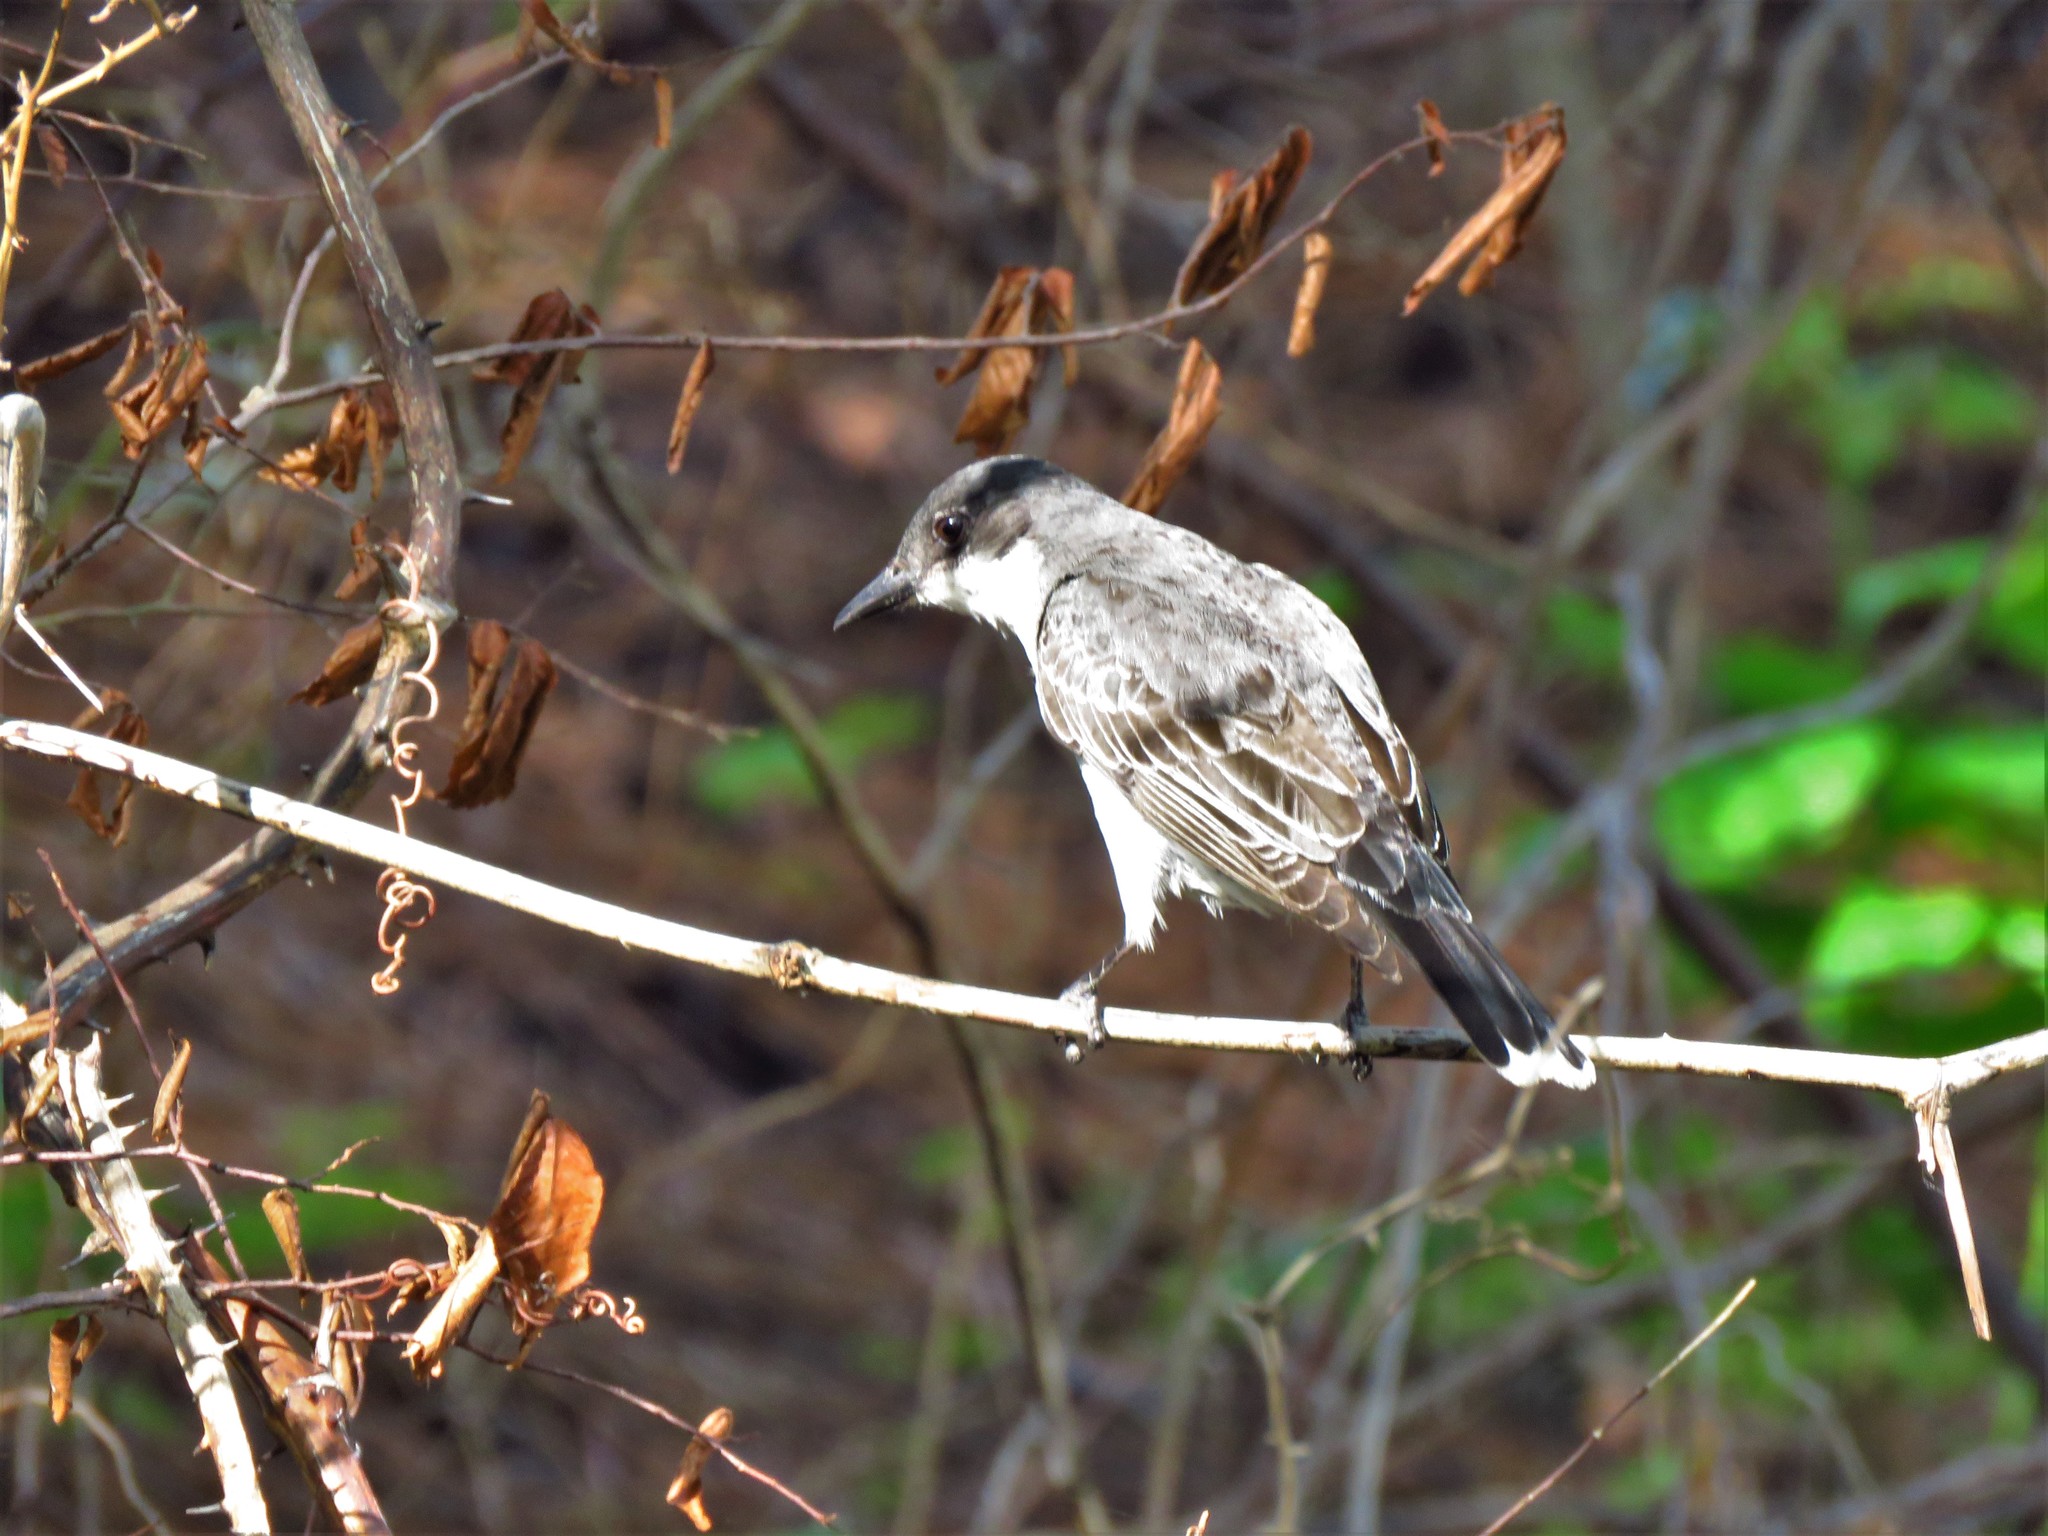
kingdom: Animalia
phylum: Chordata
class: Aves
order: Passeriformes
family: Tyrannidae
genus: Tyrannus
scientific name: Tyrannus tyrannus
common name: Eastern kingbird
